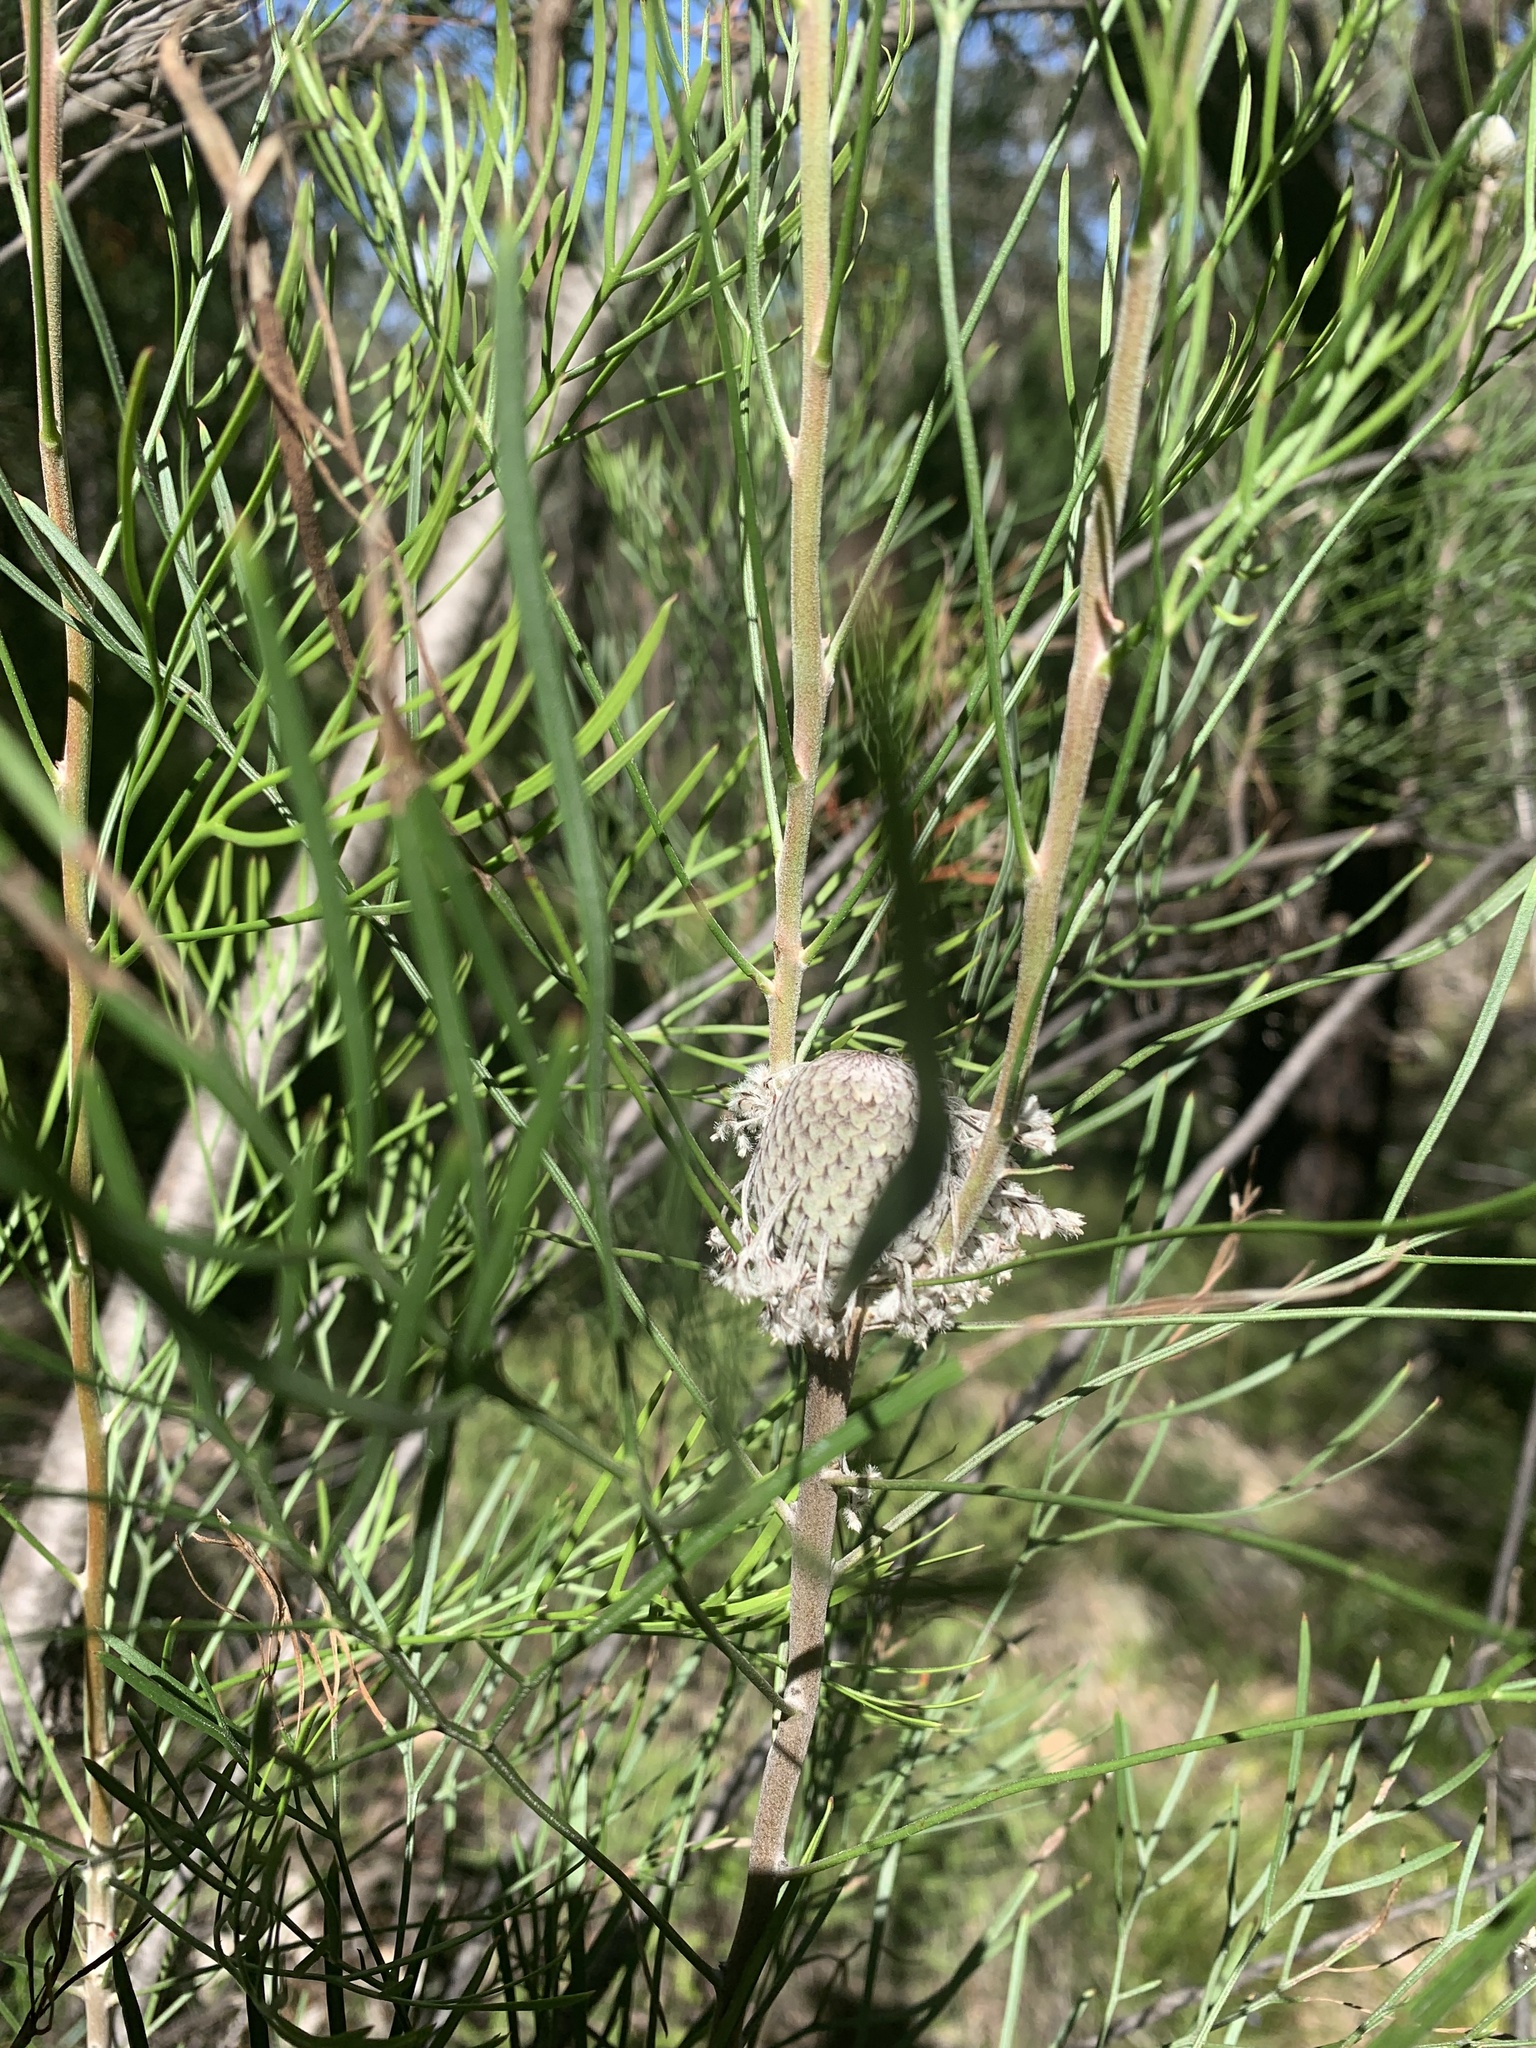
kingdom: Plantae
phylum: Tracheophyta
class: Magnoliopsida
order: Proteales
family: Proteaceae
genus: Isopogon
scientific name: Isopogon dawsonii
